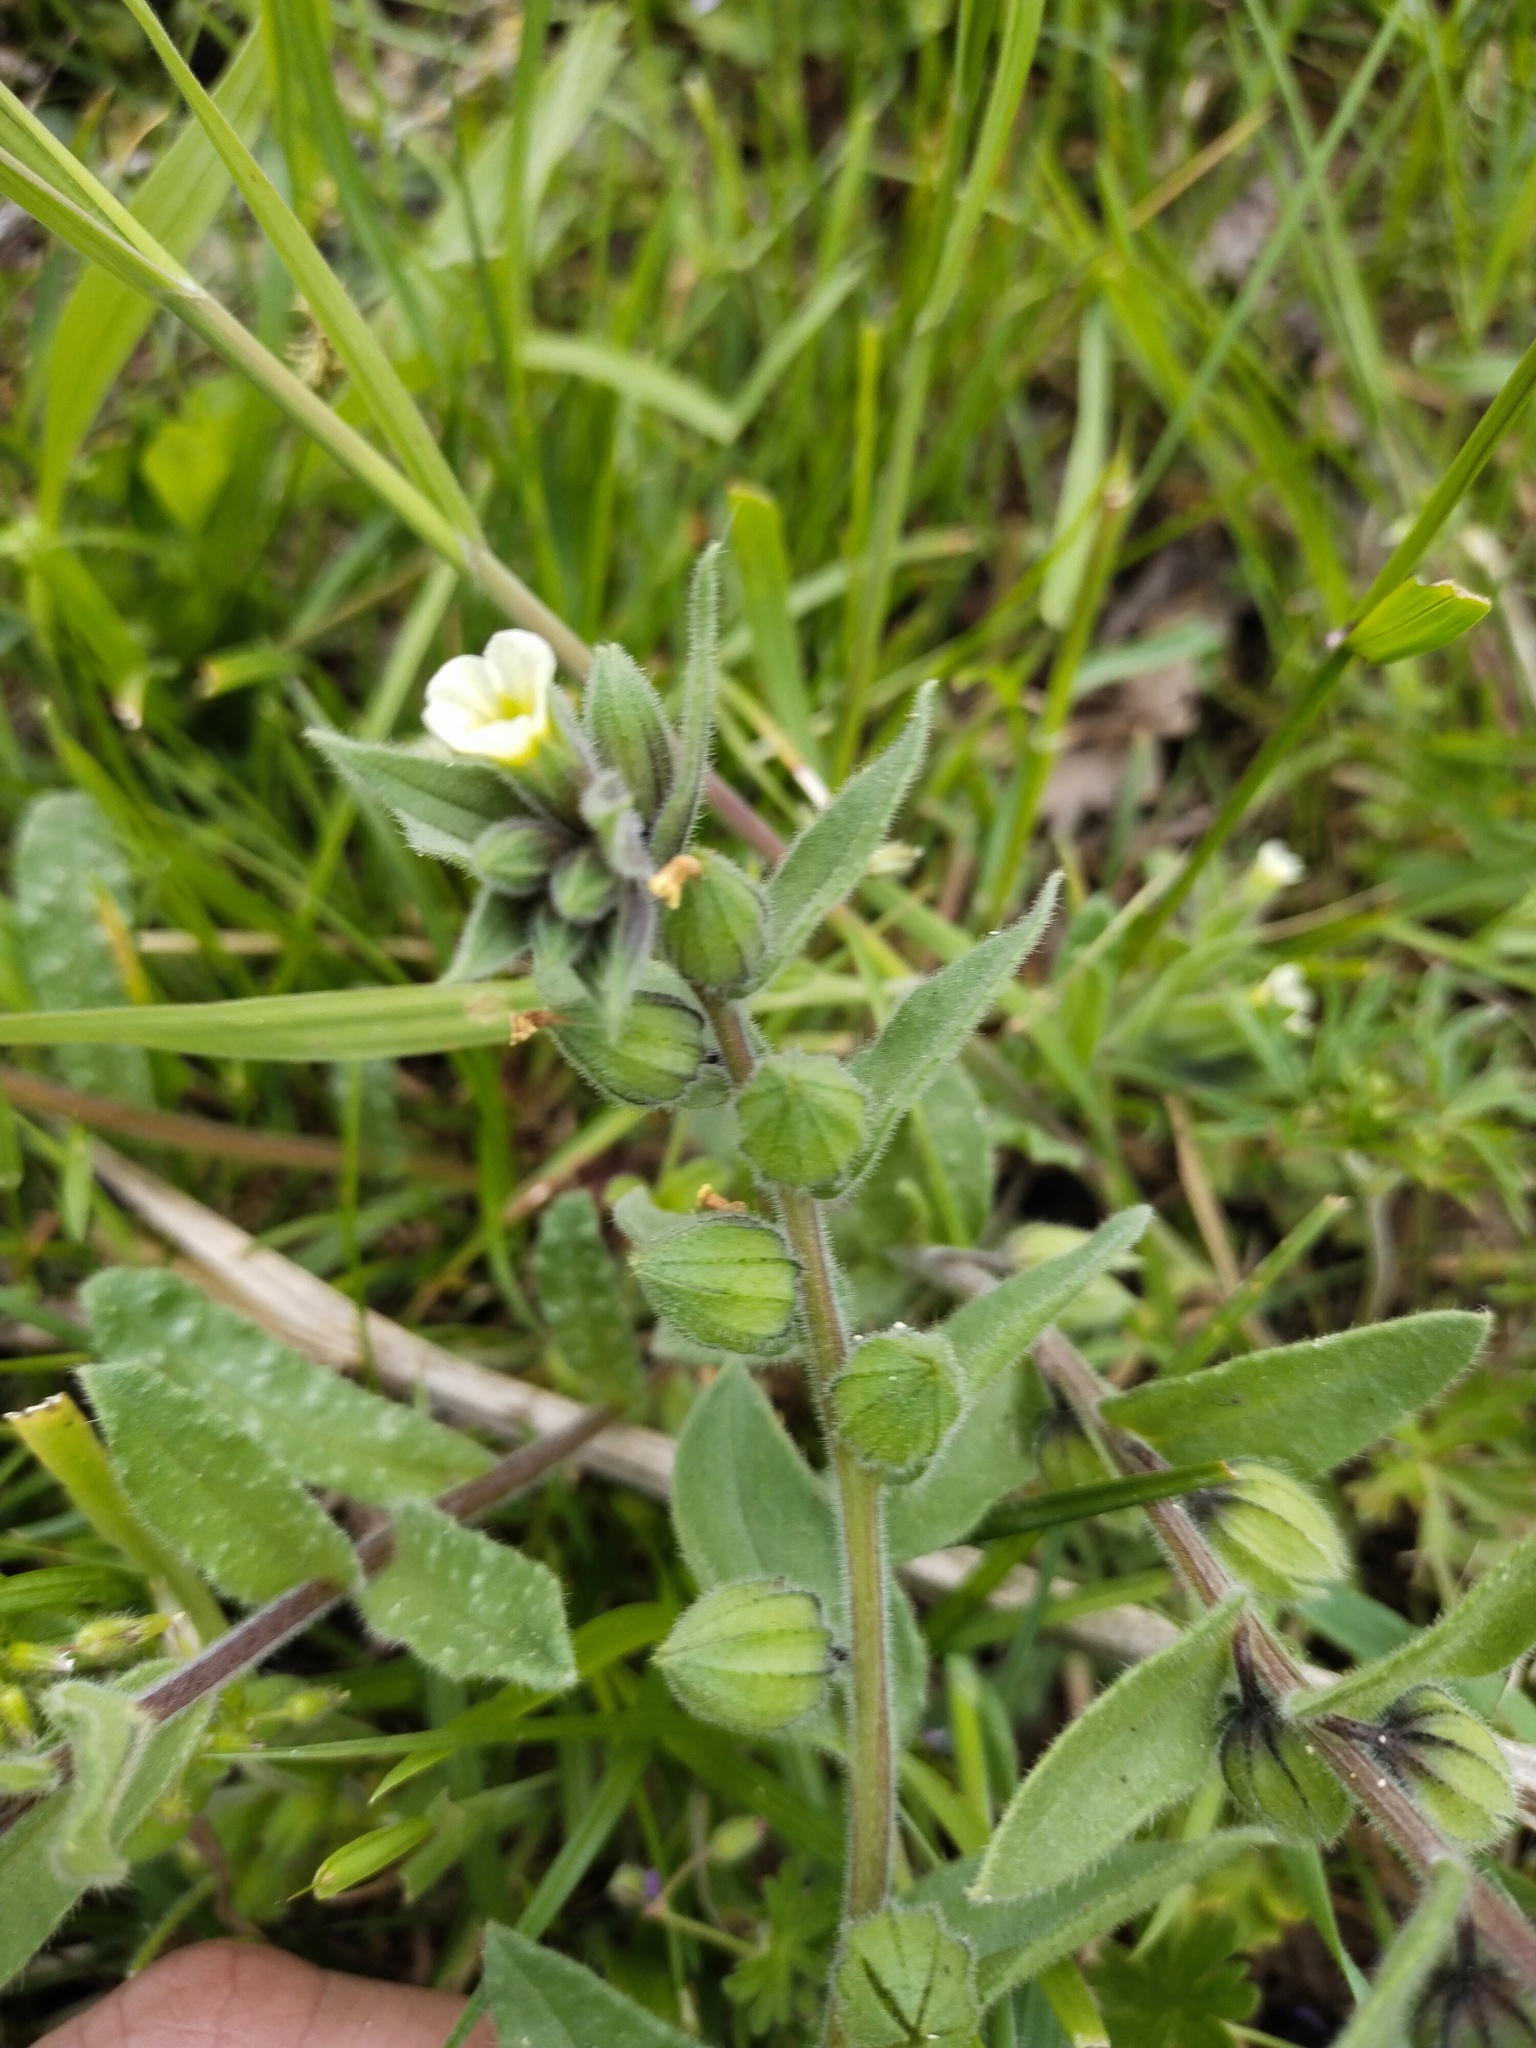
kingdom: Plantae
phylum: Tracheophyta
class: Magnoliopsida
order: Boraginales
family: Boraginaceae
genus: Nonea
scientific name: Nonea lutea
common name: Yellow nonea
